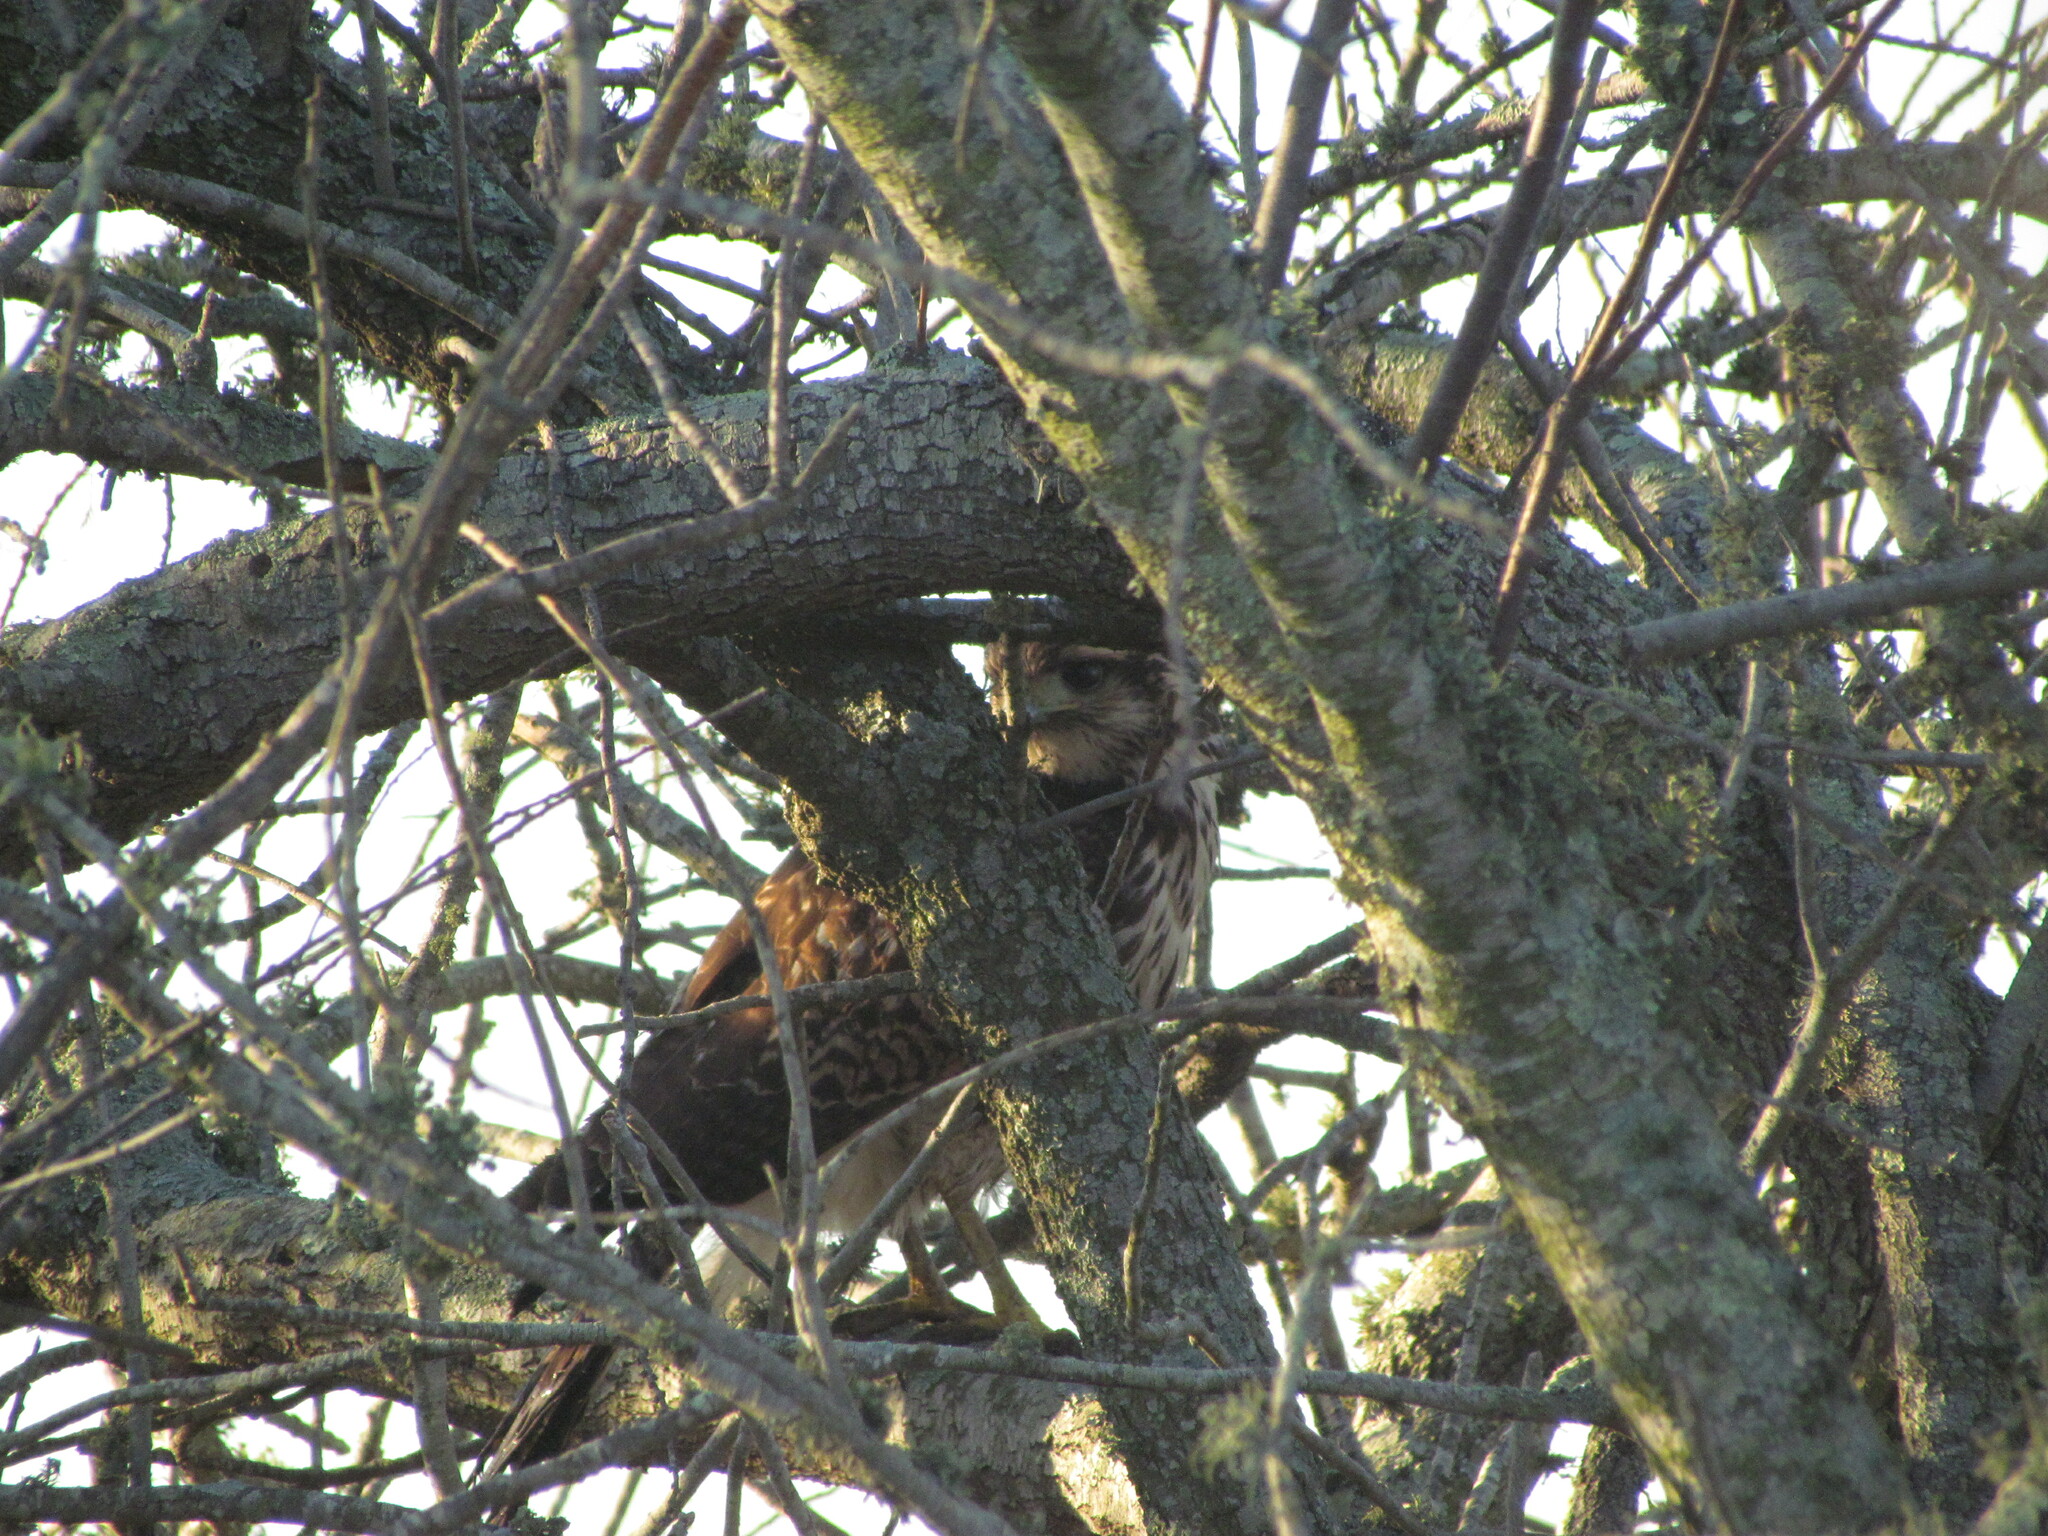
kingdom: Animalia
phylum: Chordata
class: Aves
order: Accipitriformes
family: Accipitridae
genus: Parabuteo
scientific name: Parabuteo unicinctus
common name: Harris's hawk
